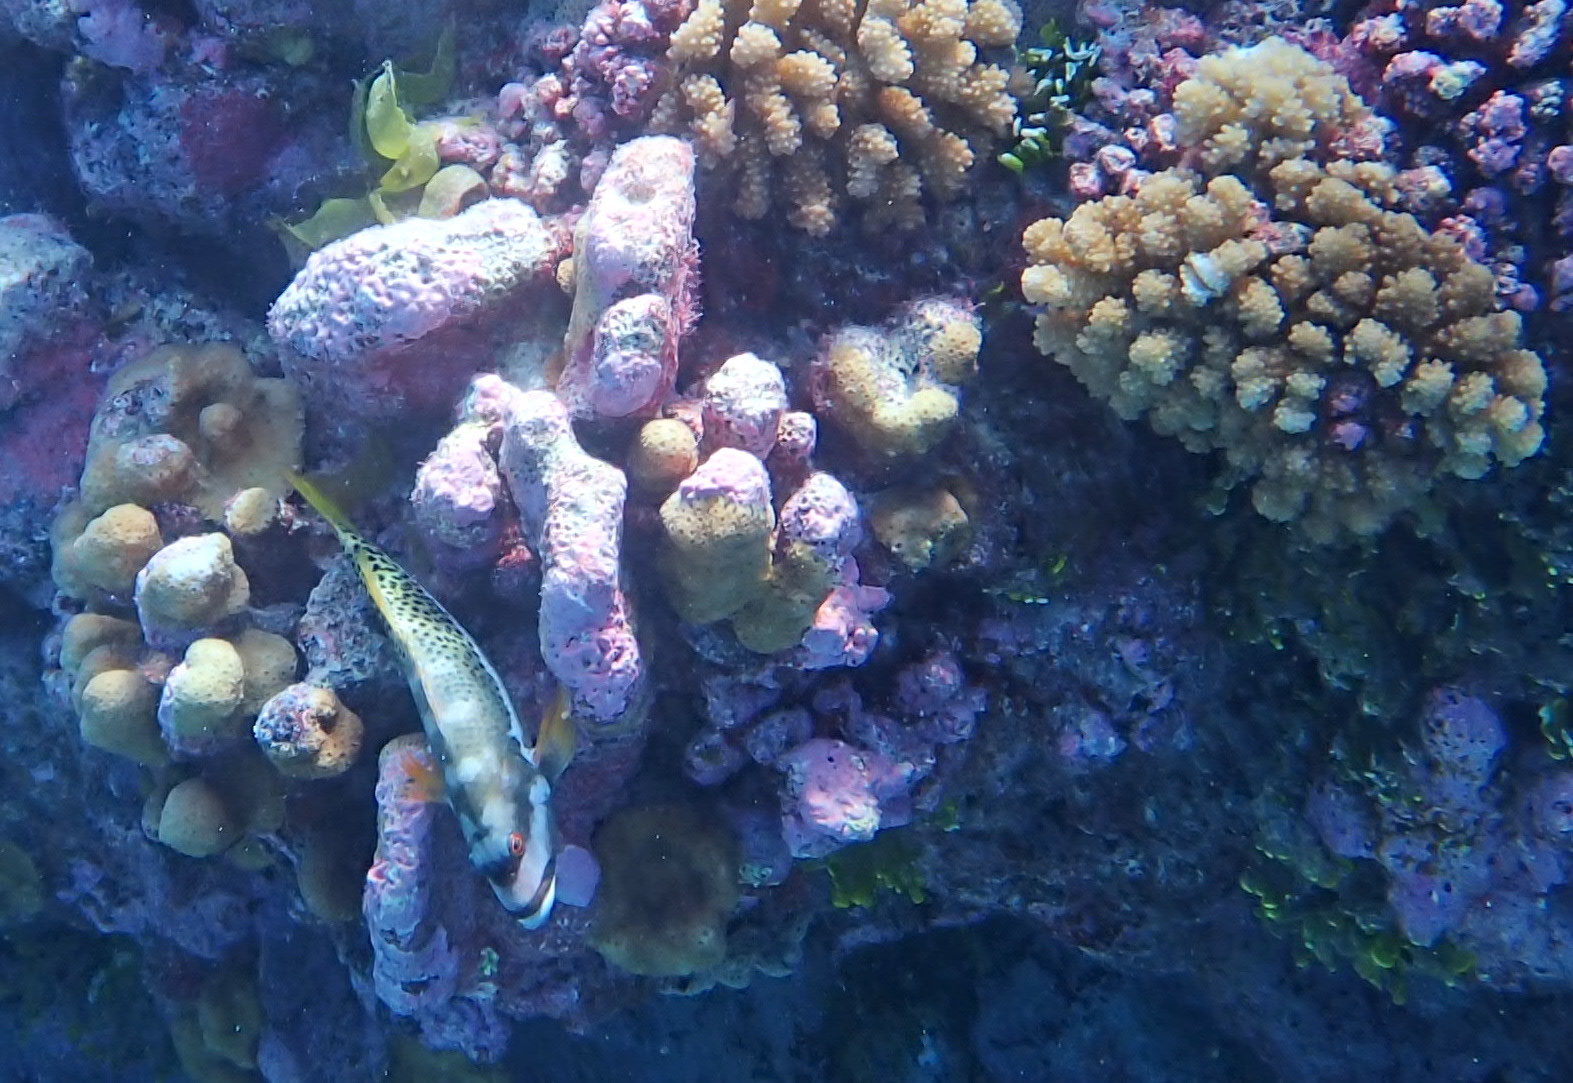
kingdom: Animalia
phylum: Chordata
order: Perciformes
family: Cirrhitidae
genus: Paracirrhites
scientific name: Paracirrhites hemistictus
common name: Halfspotted hawkfish
